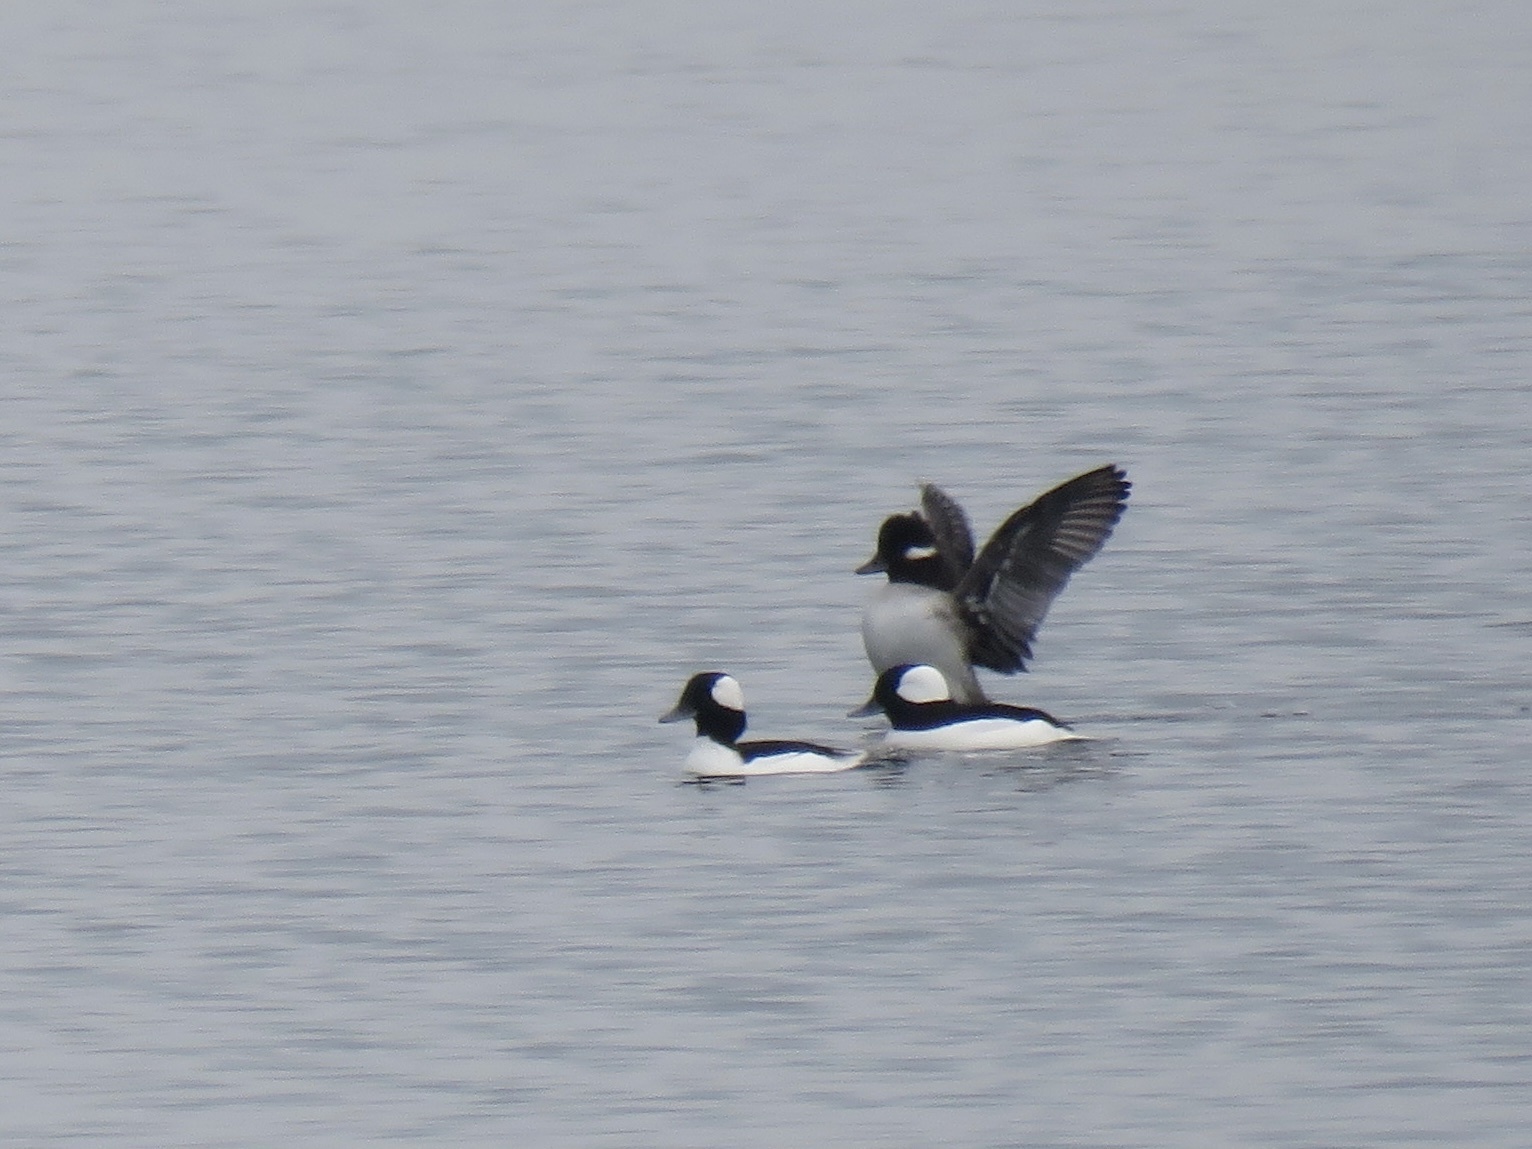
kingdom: Animalia
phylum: Chordata
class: Aves
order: Anseriformes
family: Anatidae
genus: Bucephala
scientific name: Bucephala albeola
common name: Bufflehead
